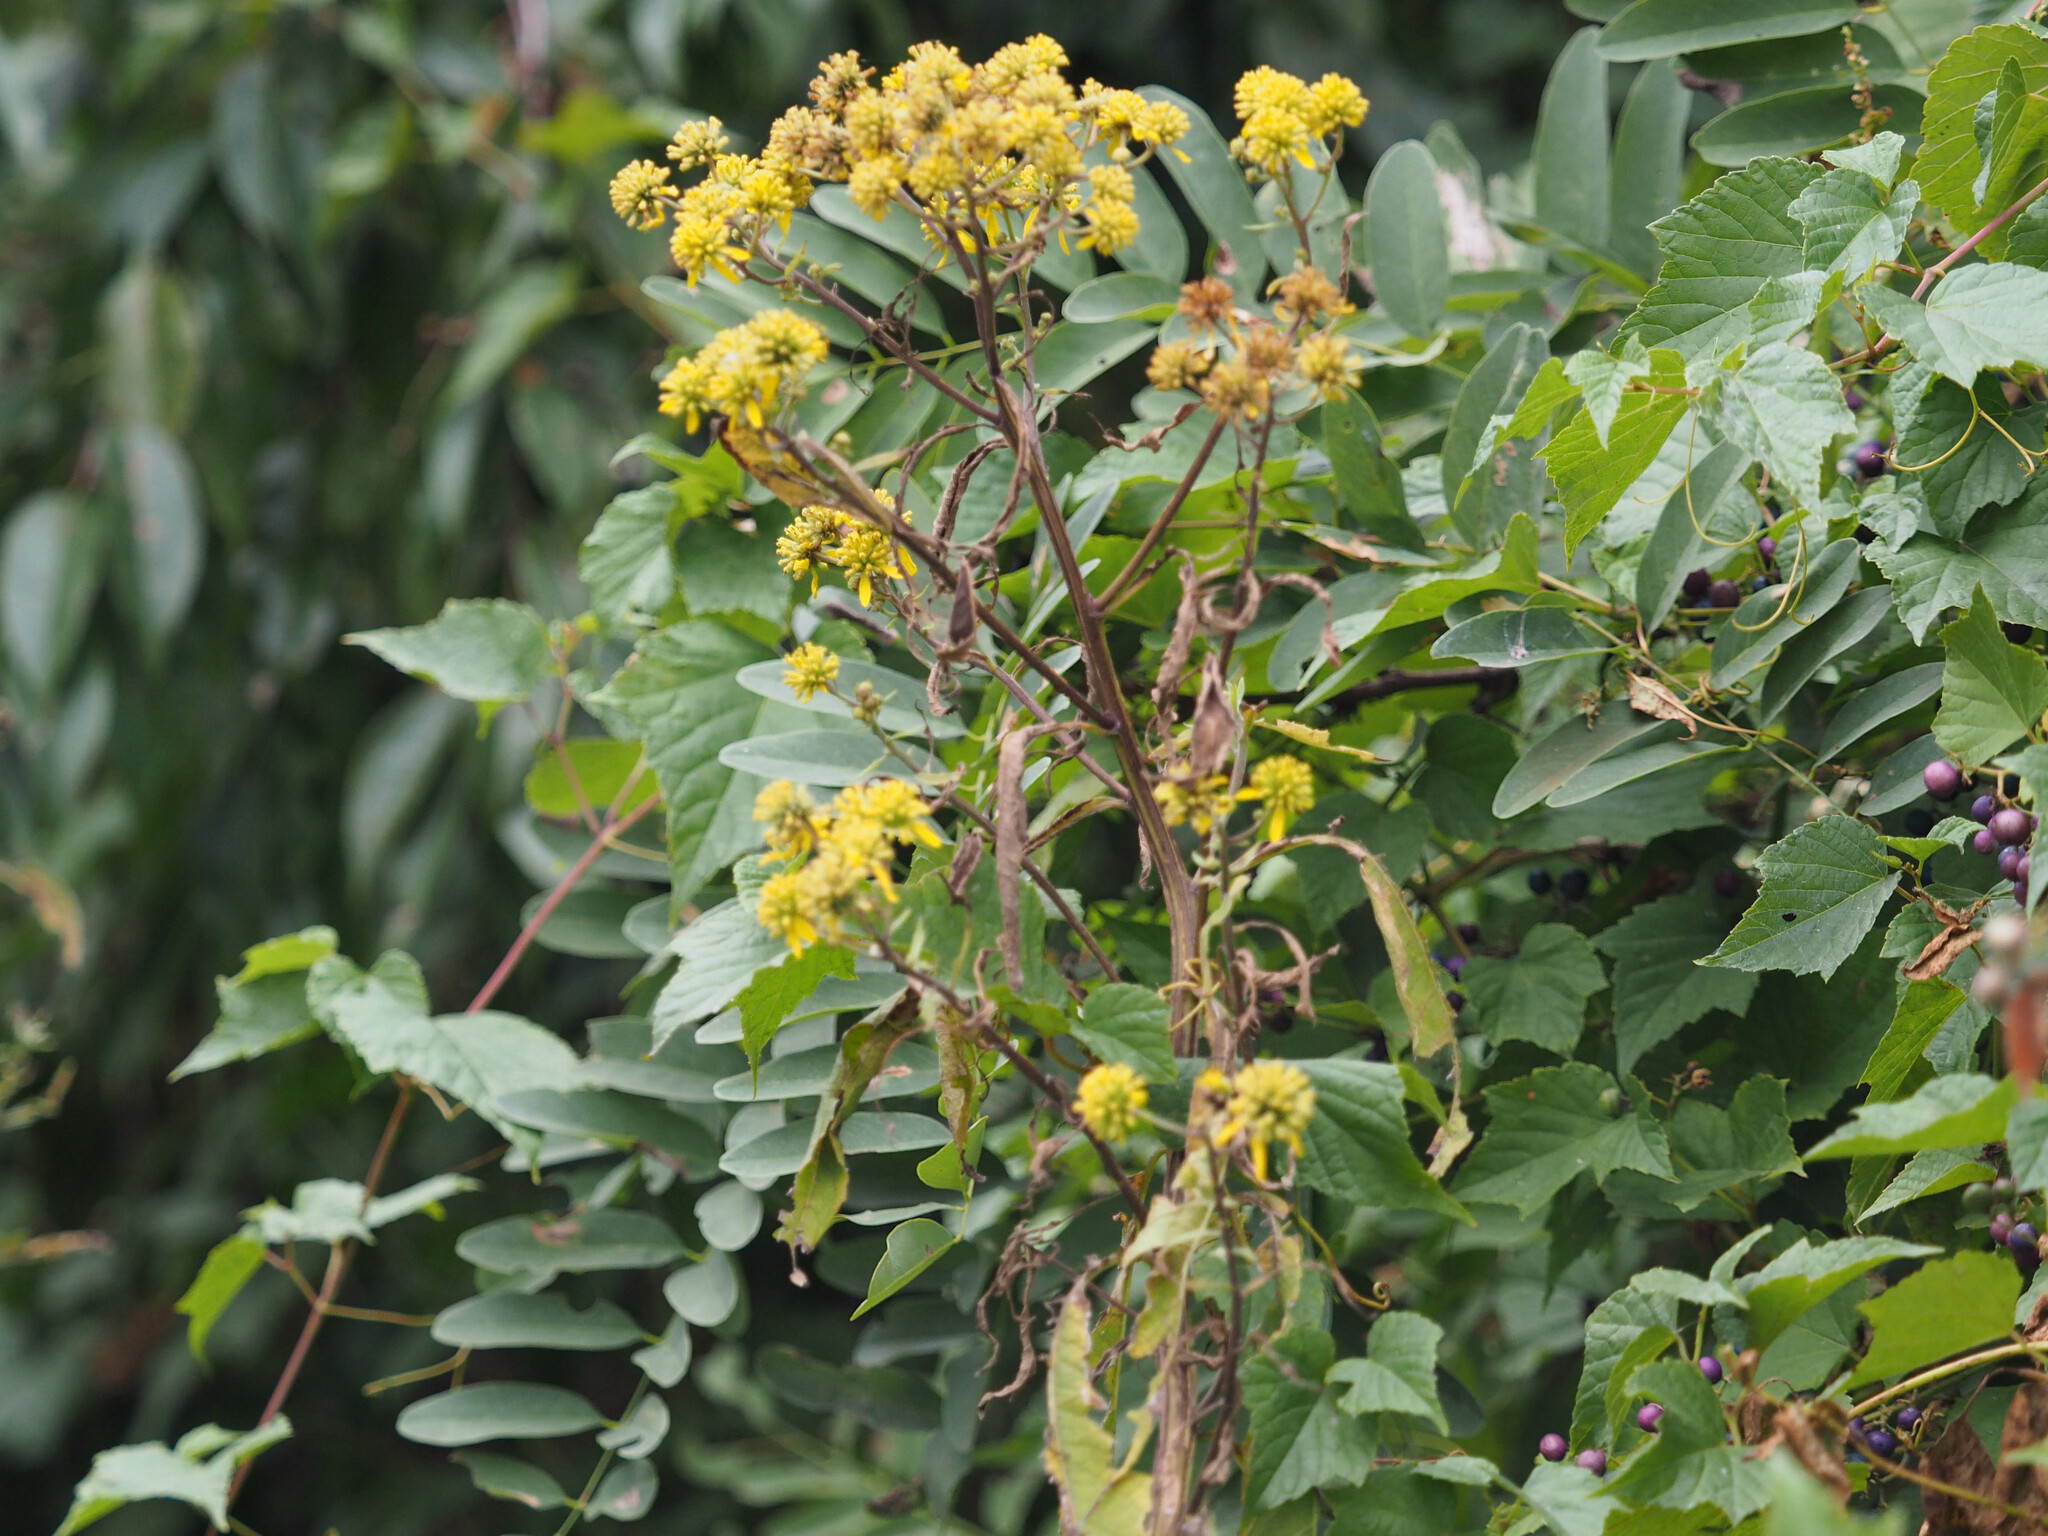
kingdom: Plantae
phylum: Tracheophyta
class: Magnoliopsida
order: Asterales
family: Asteraceae
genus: Verbesina
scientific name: Verbesina alternifolia
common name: Wingstem
